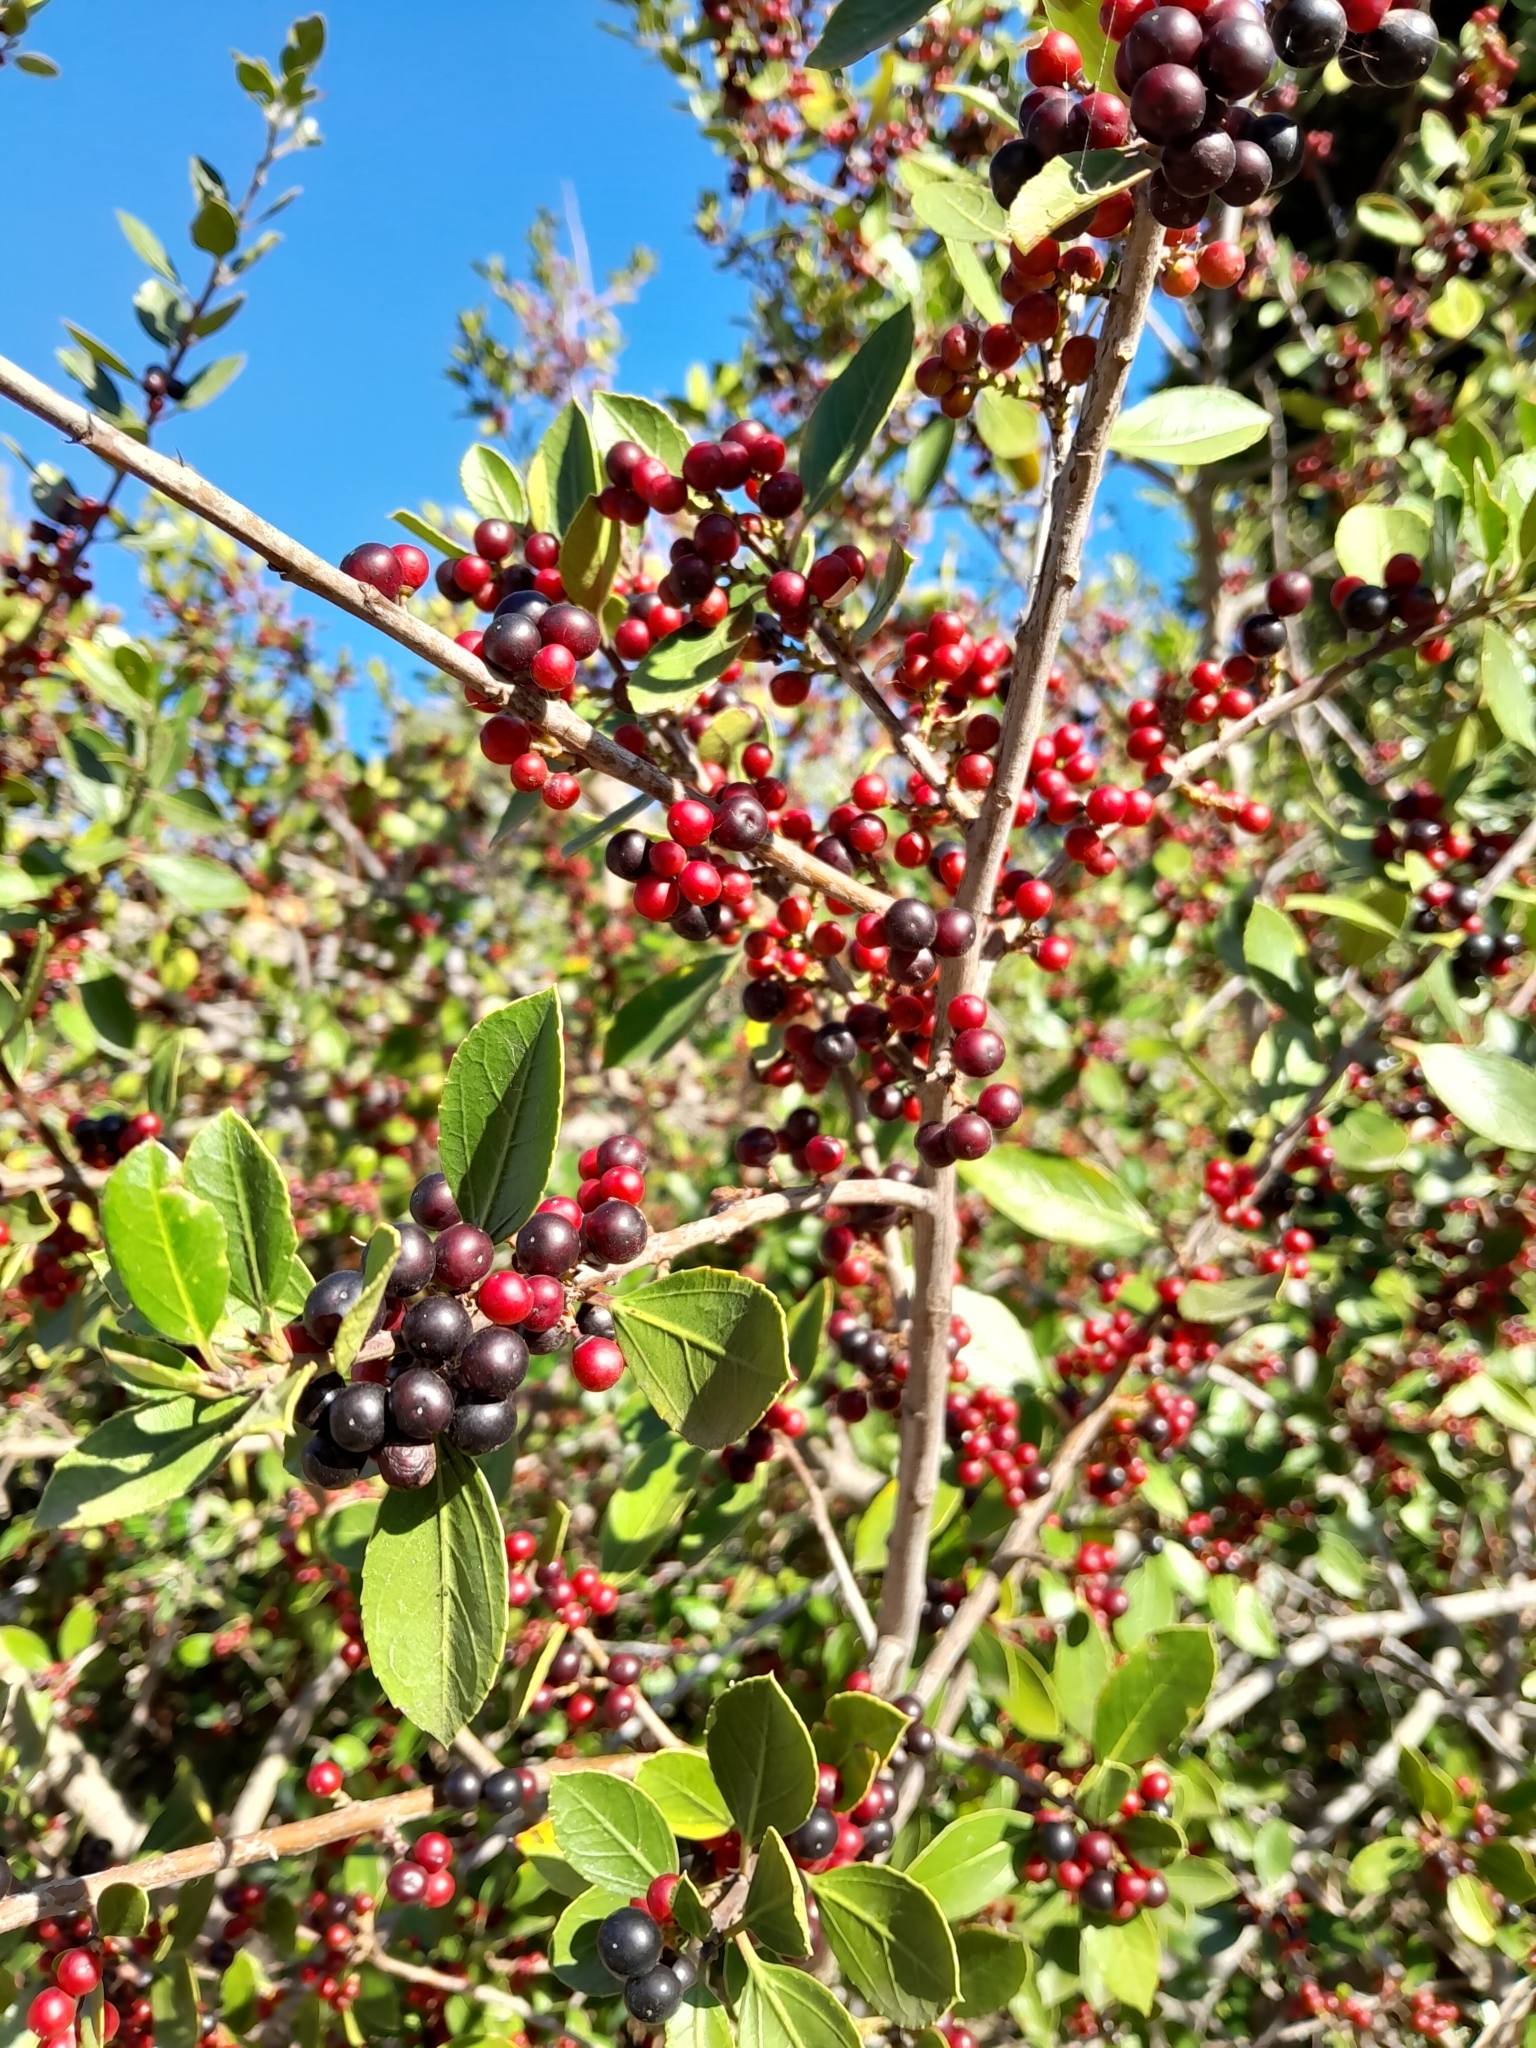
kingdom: Plantae
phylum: Tracheophyta
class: Magnoliopsida
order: Rosales
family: Rhamnaceae
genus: Rhamnus
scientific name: Rhamnus alaternus
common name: Mediterranean buckthorn
